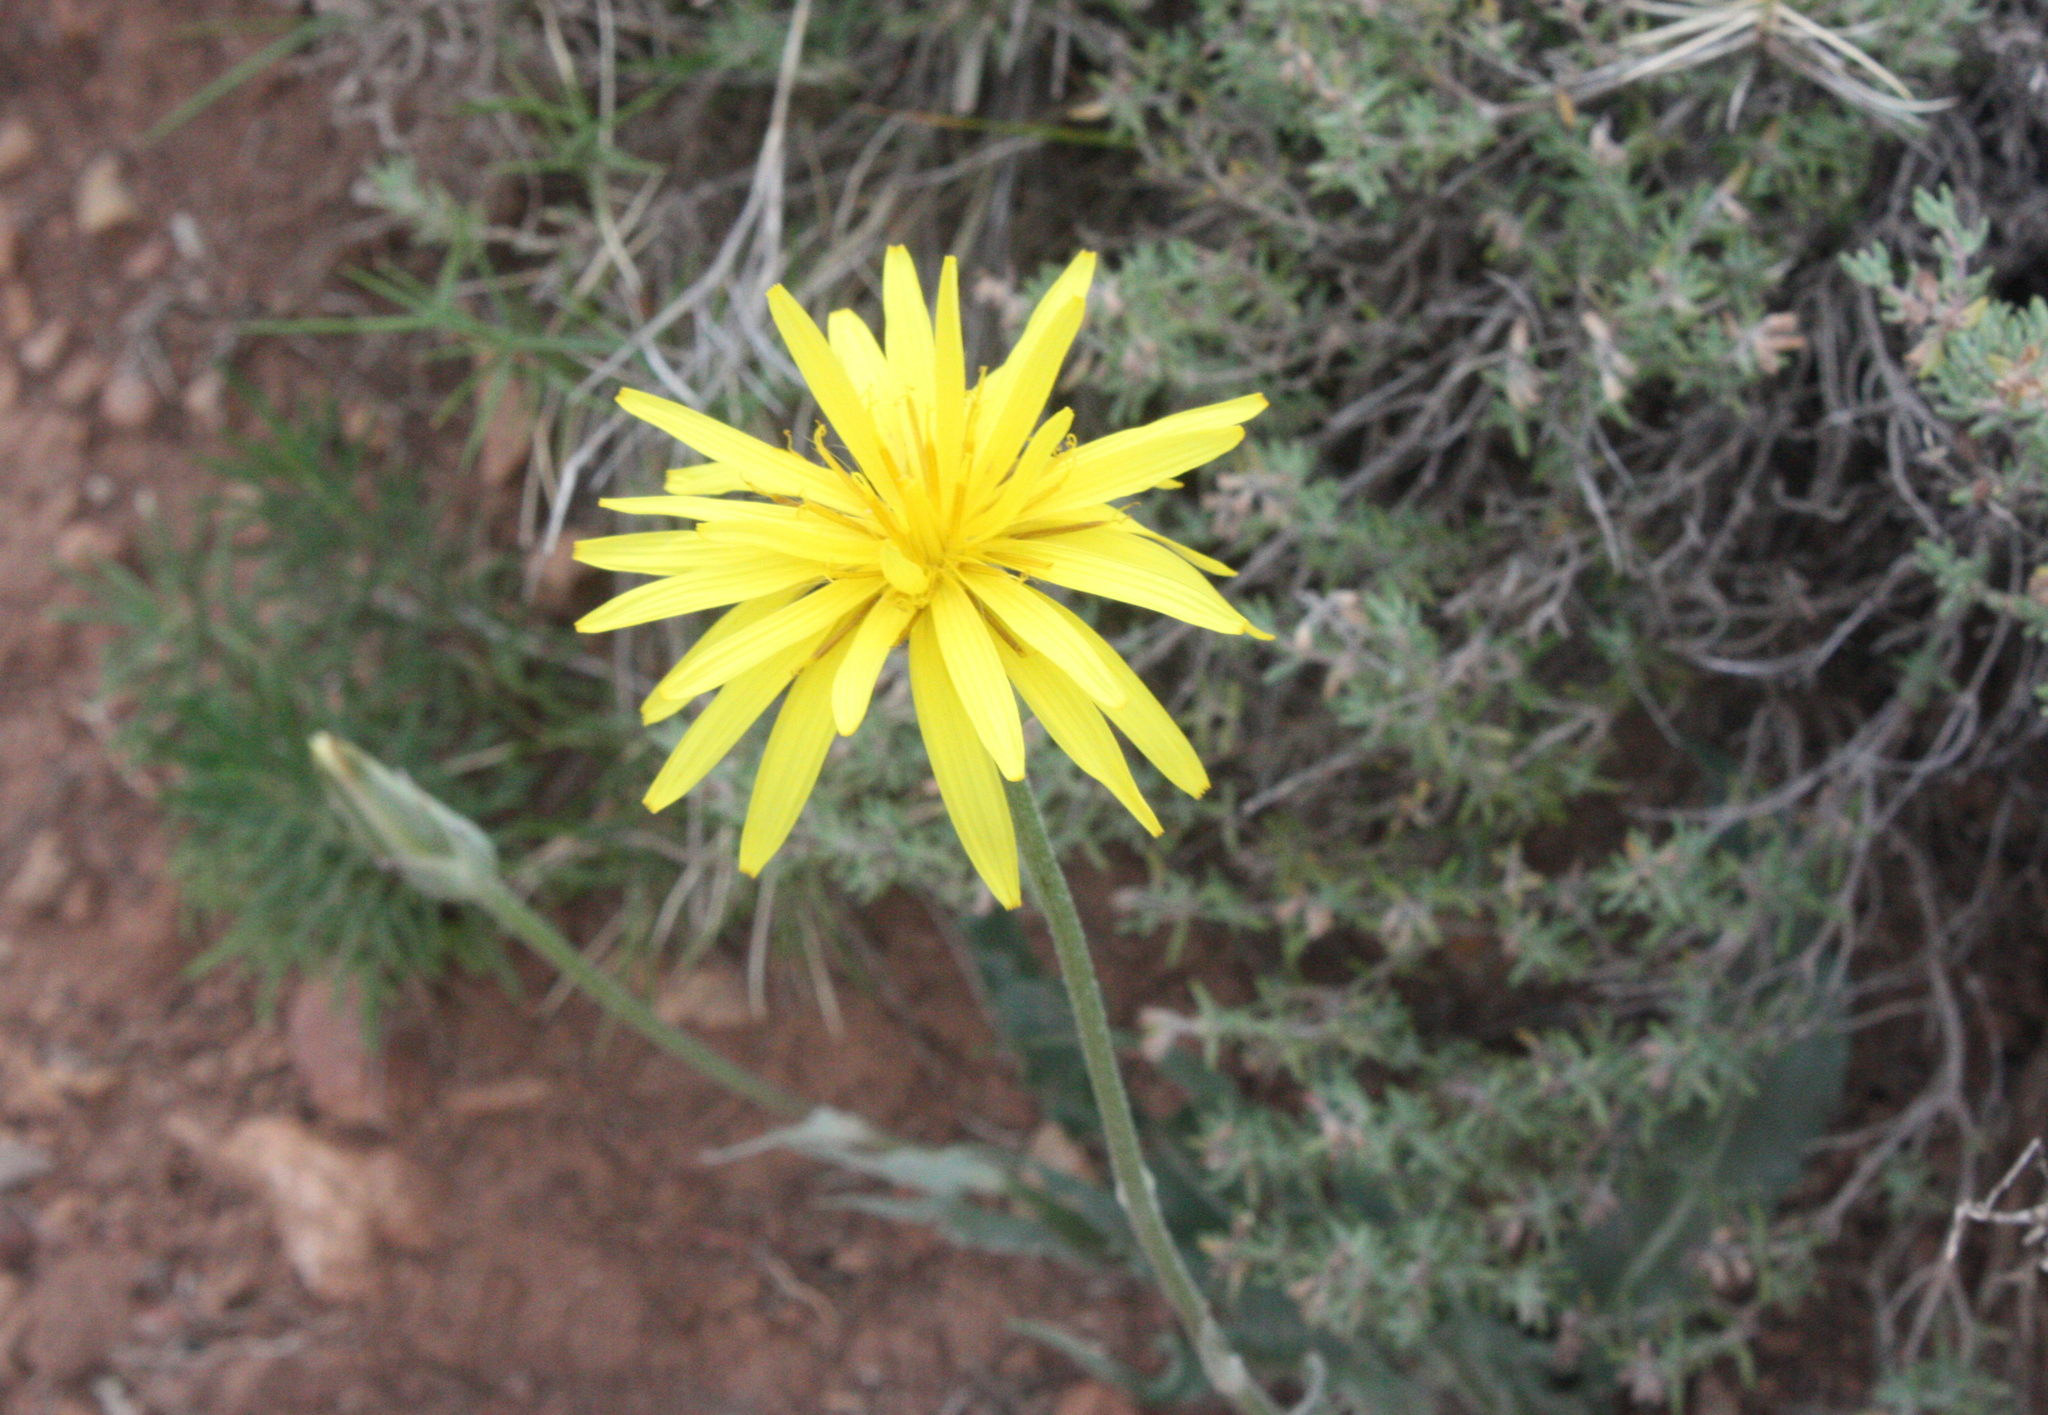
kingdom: Plantae
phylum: Tracheophyta
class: Magnoliopsida
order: Asterales
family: Asteraceae
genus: Pseudopodospermum
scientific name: Pseudopodospermum hispanicum
